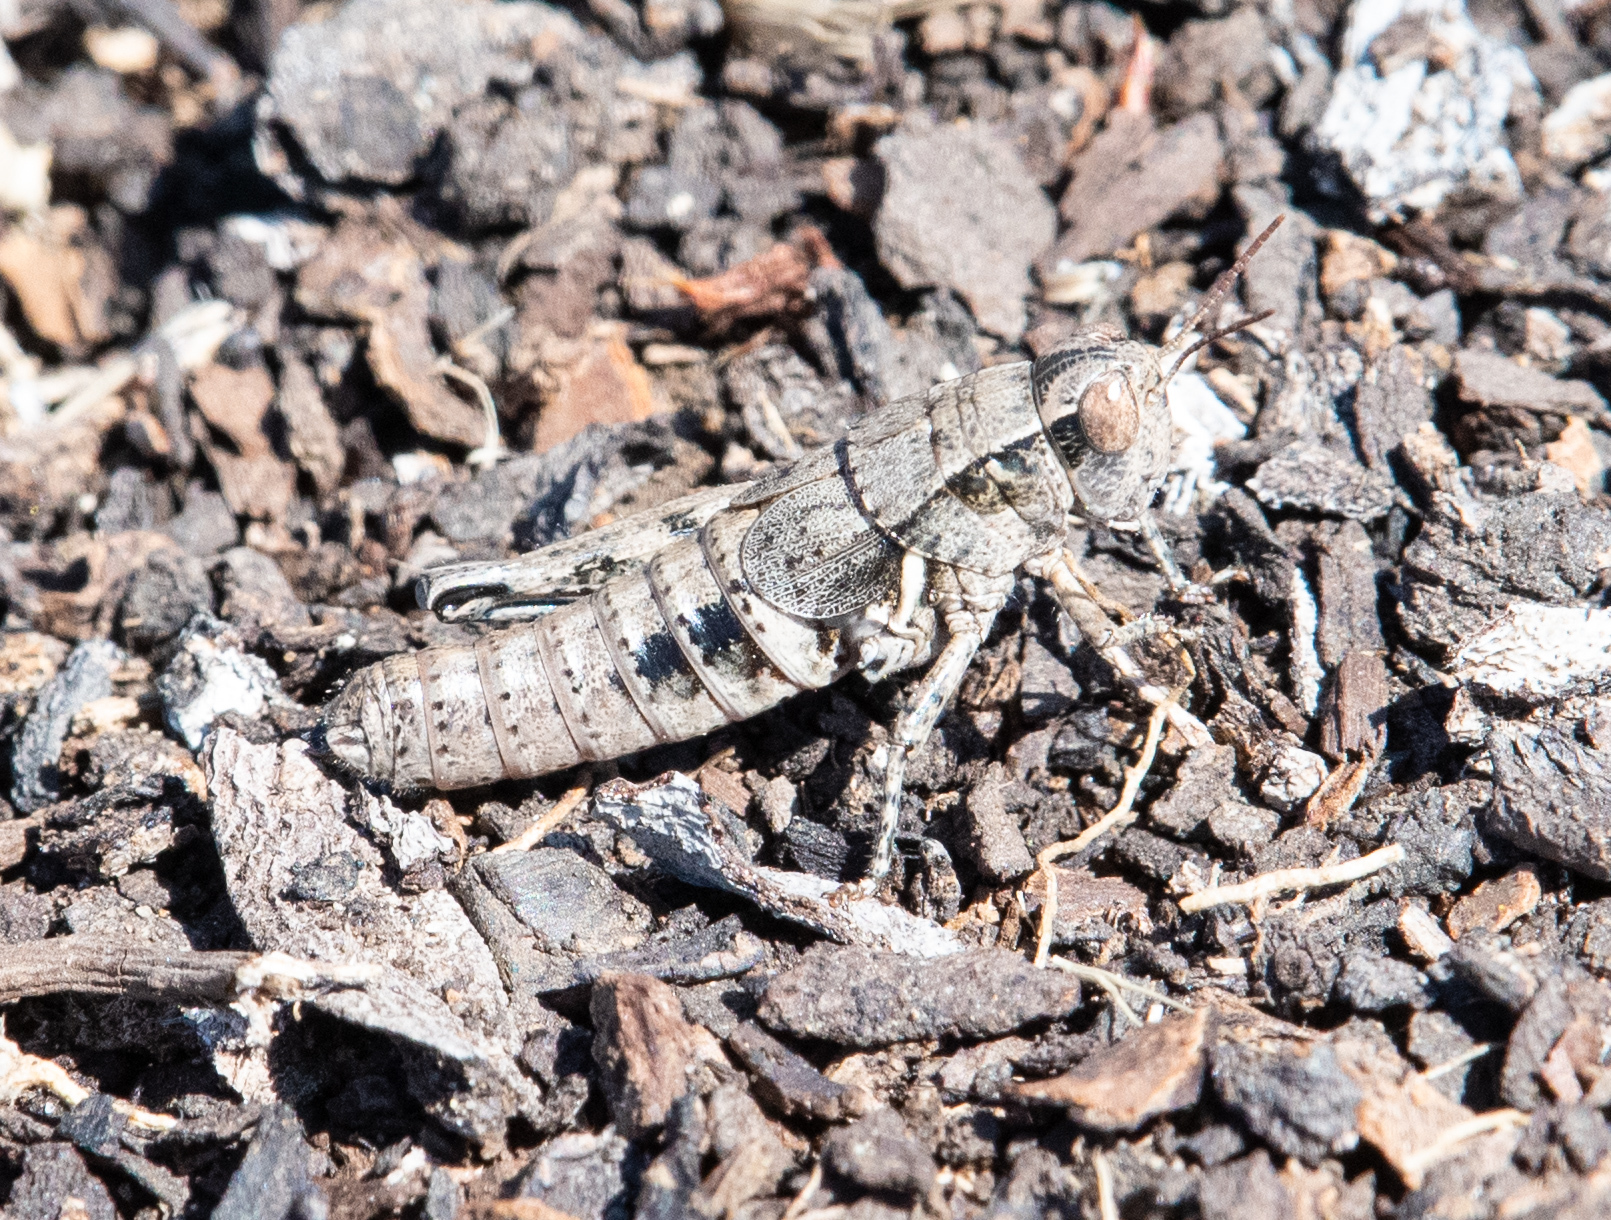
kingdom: Animalia
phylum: Arthropoda
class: Insecta
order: Orthoptera
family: Acrididae
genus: Oedaleonotus
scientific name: Oedaleonotus borckii
